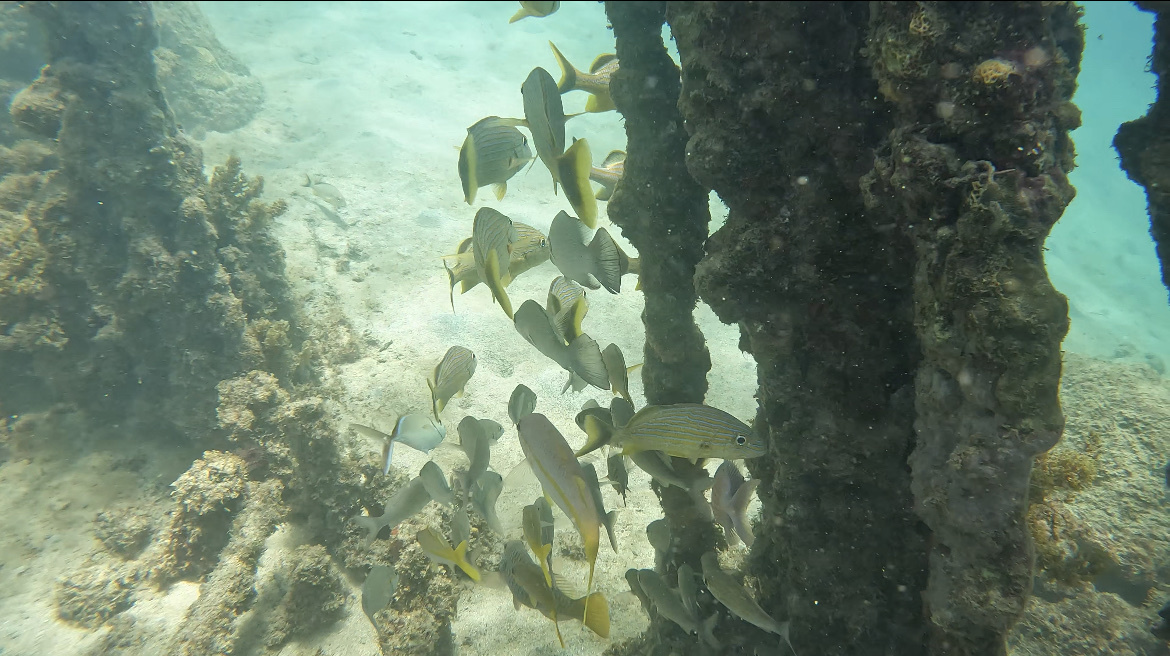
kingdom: Animalia
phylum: Chordata
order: Perciformes
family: Haemulidae
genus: Haemulon
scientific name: Haemulon sciurus
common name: Bluestriped grunt
